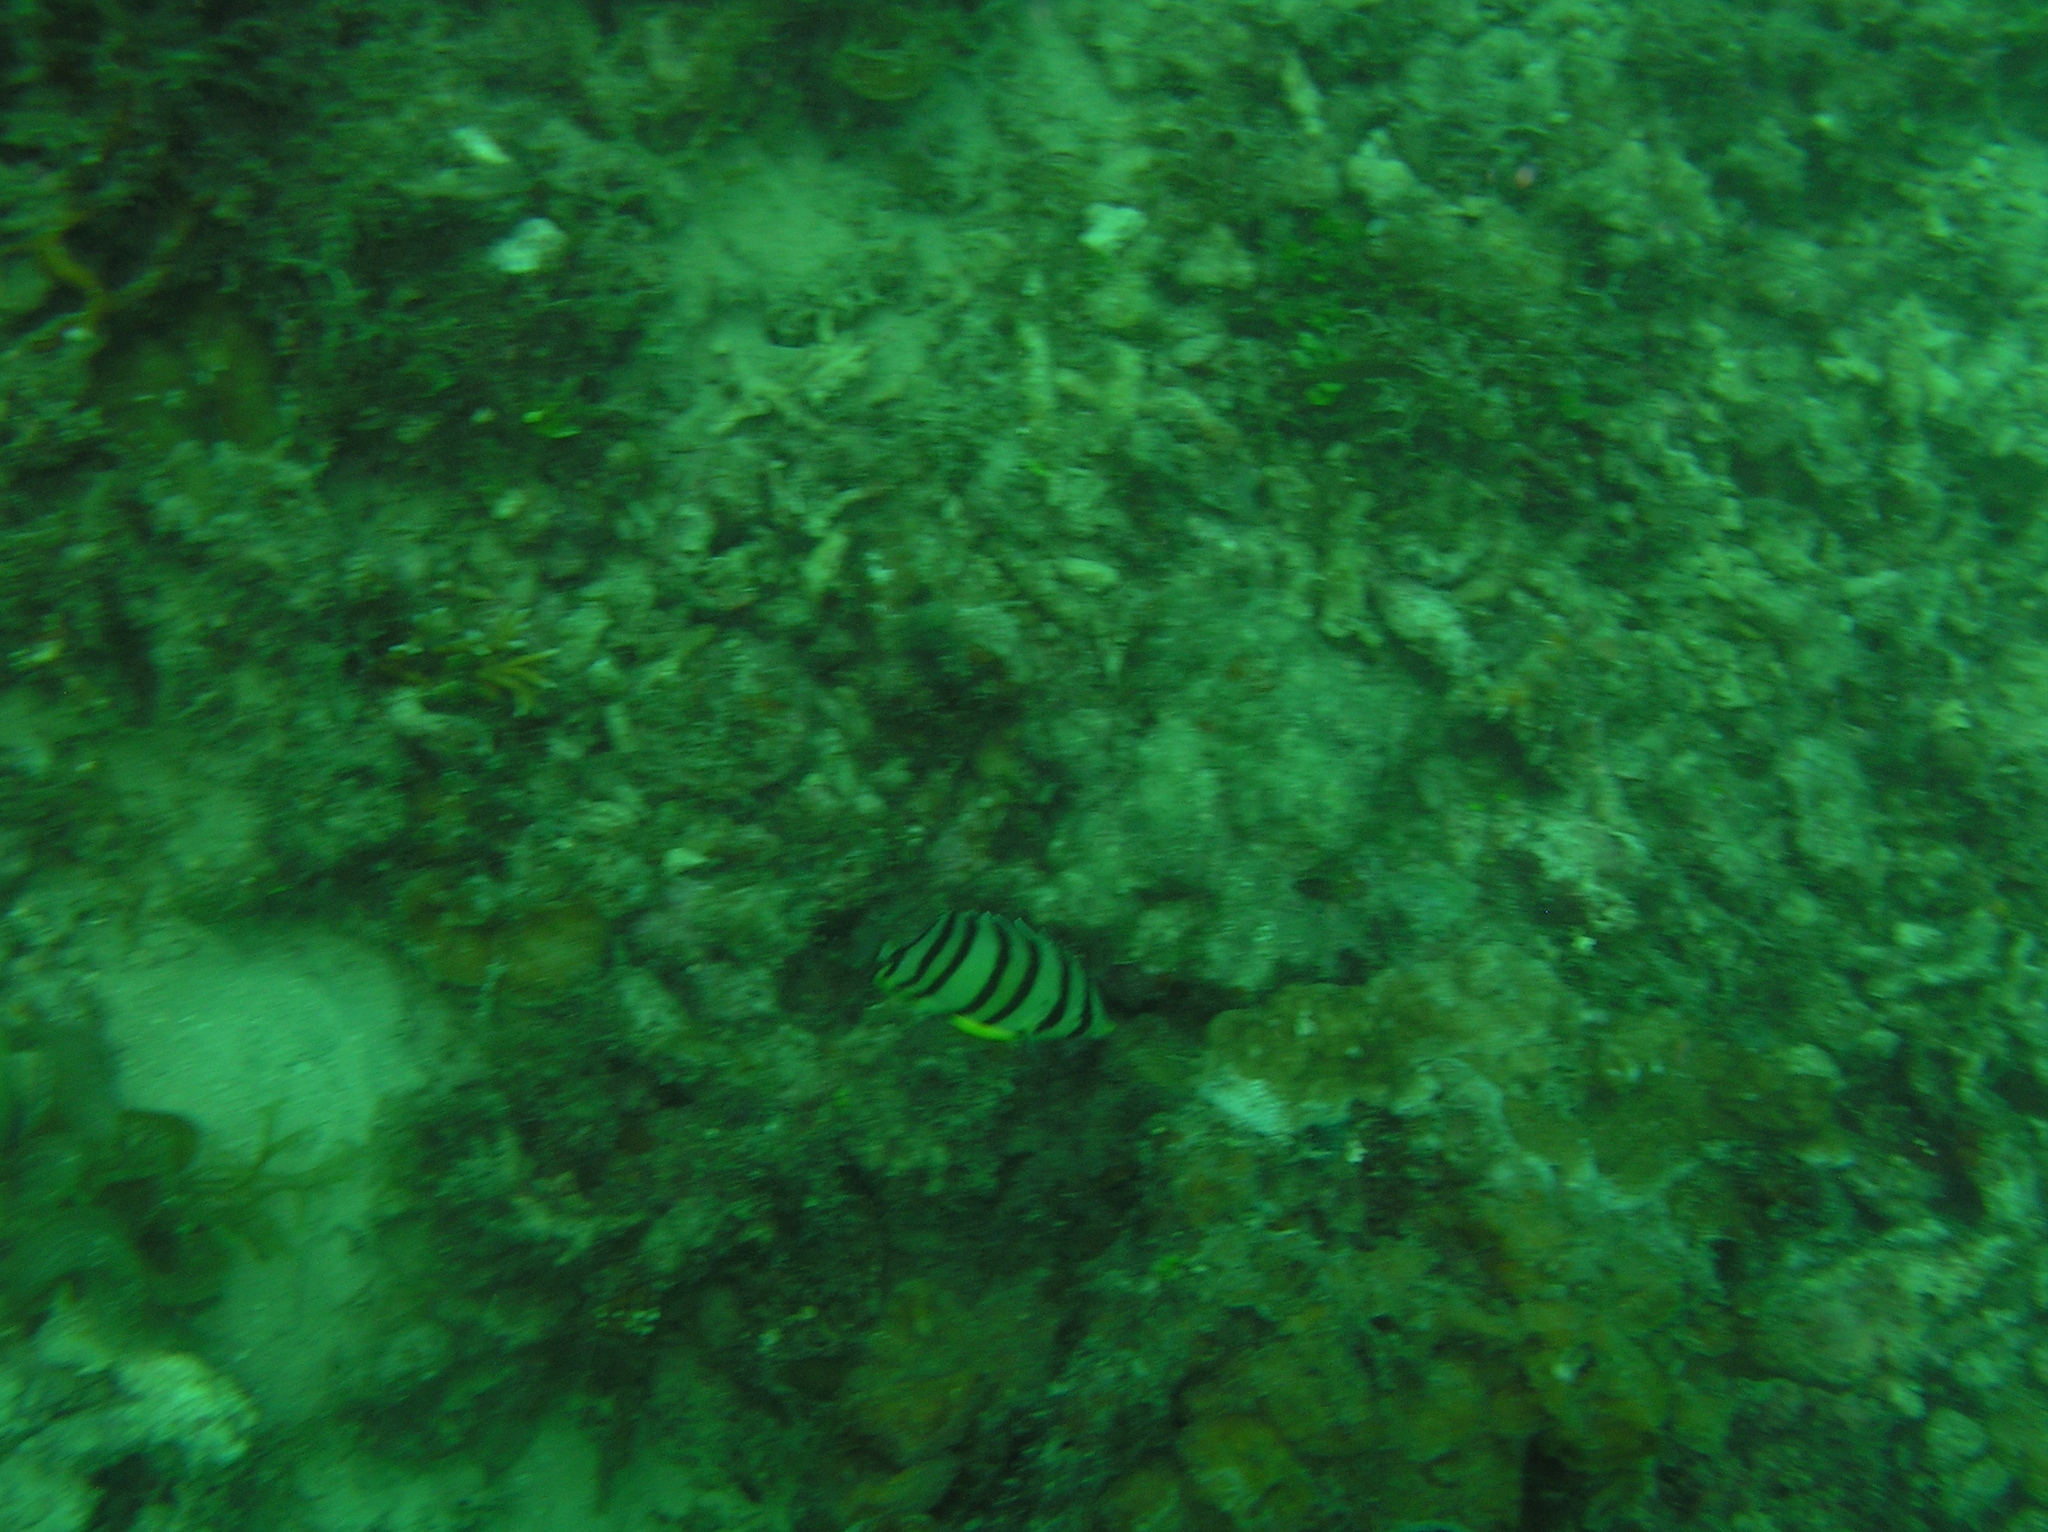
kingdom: Animalia
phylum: Chordata
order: Perciformes
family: Chaetodontidae
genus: Chaetodon
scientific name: Chaetodon octofasciatus
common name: Eightband butterflyfish
